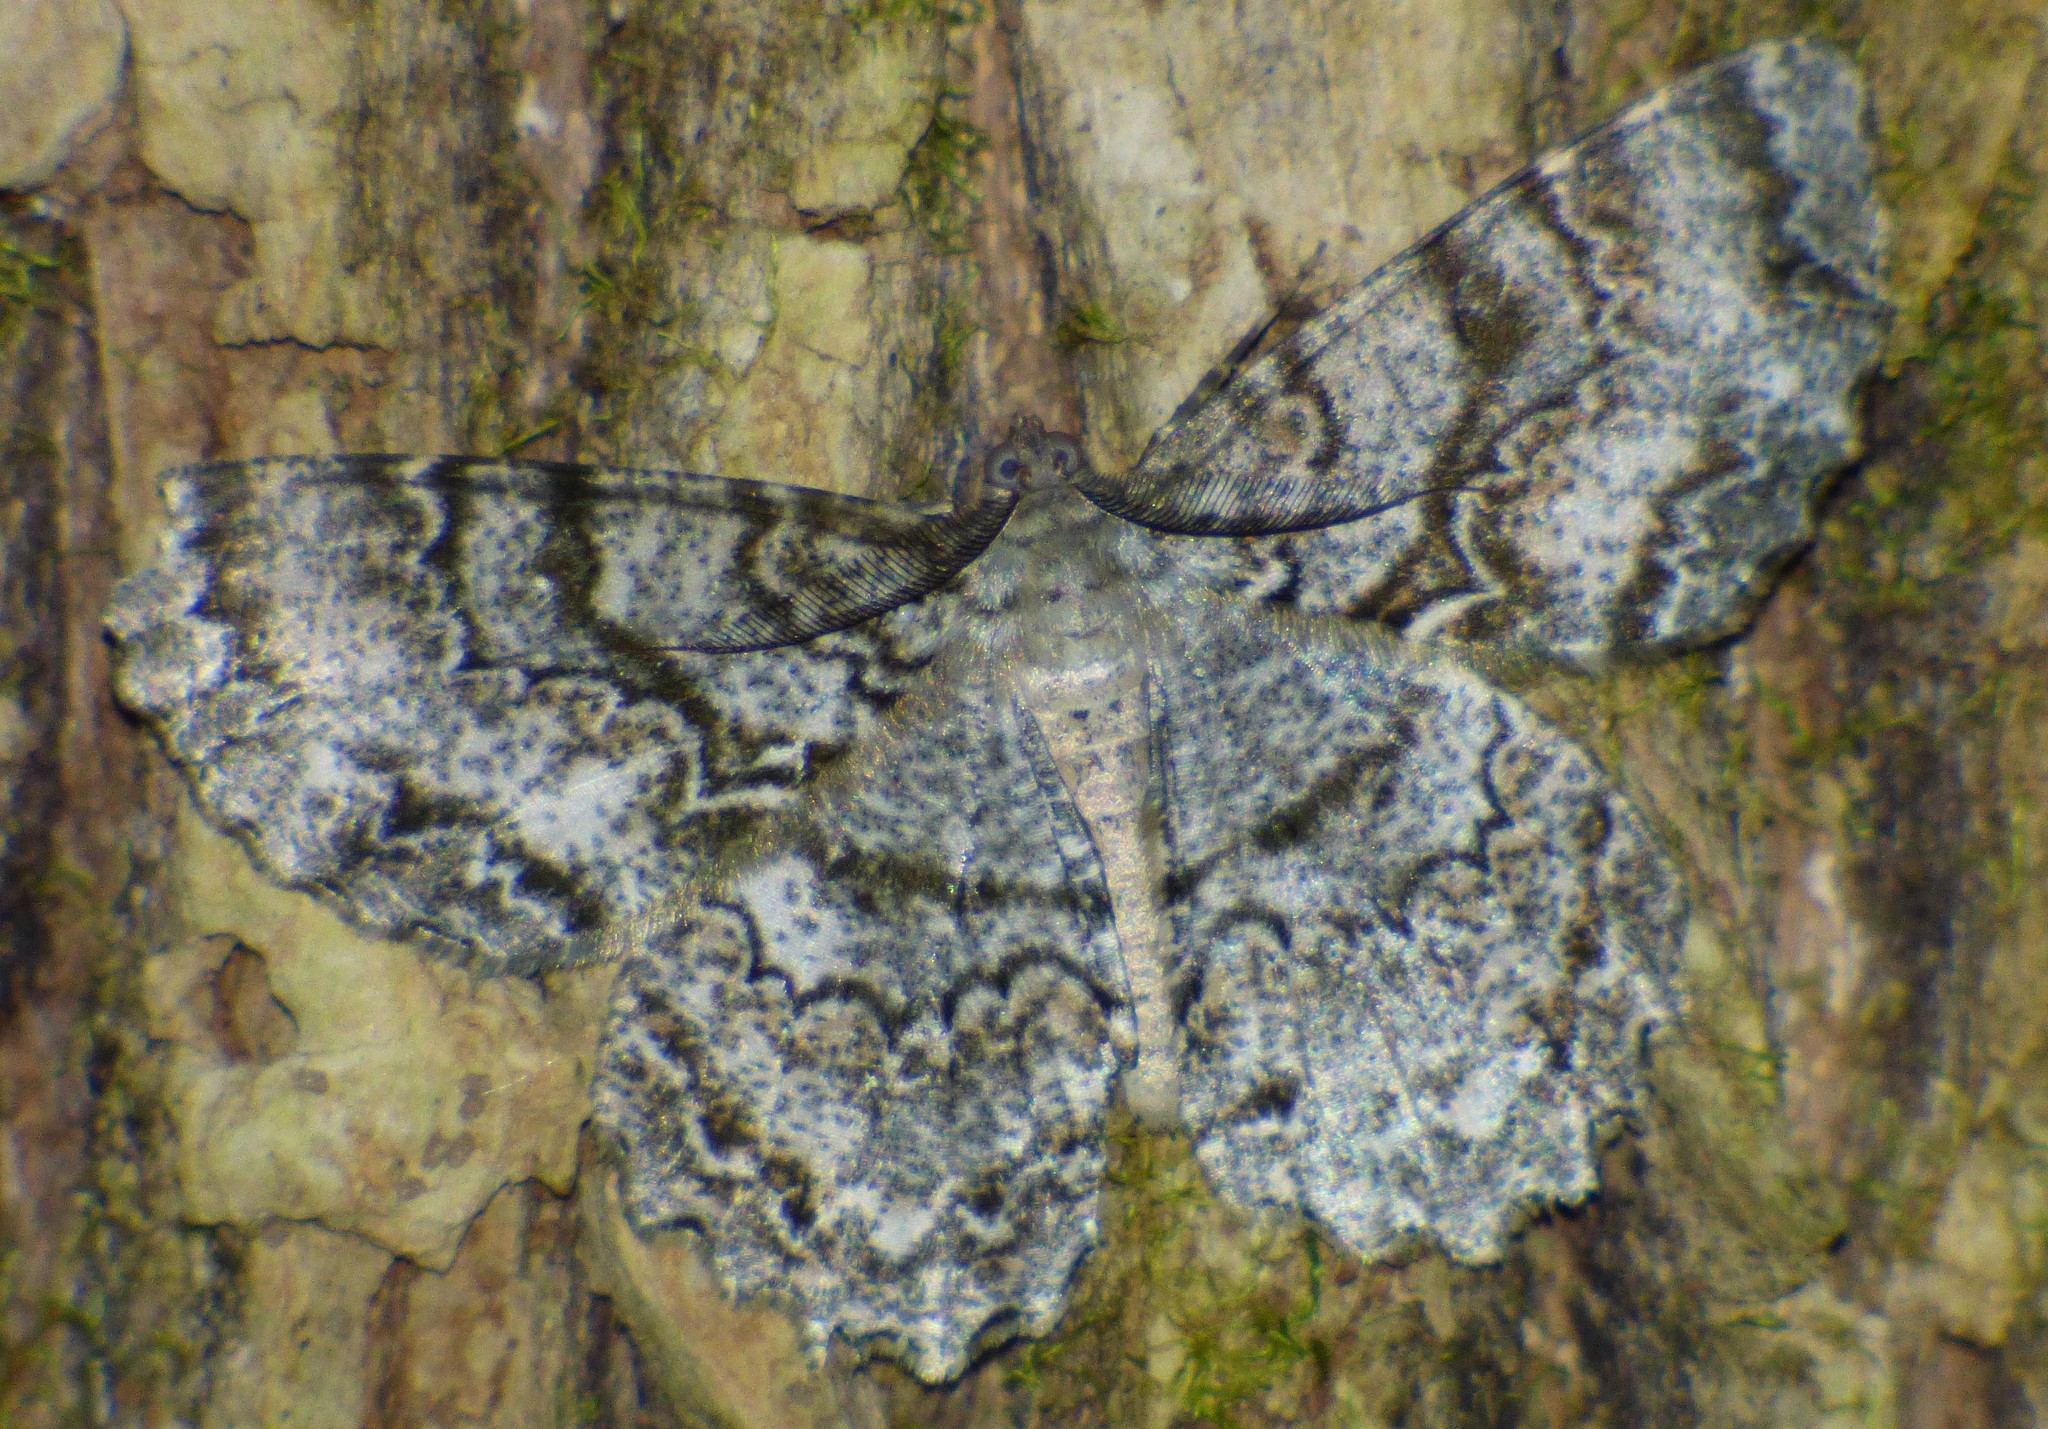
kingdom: Animalia
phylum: Arthropoda
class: Insecta
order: Lepidoptera
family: Geometridae
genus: Epimecis
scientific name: Epimecis hortaria
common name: Tulip-tree beauty
